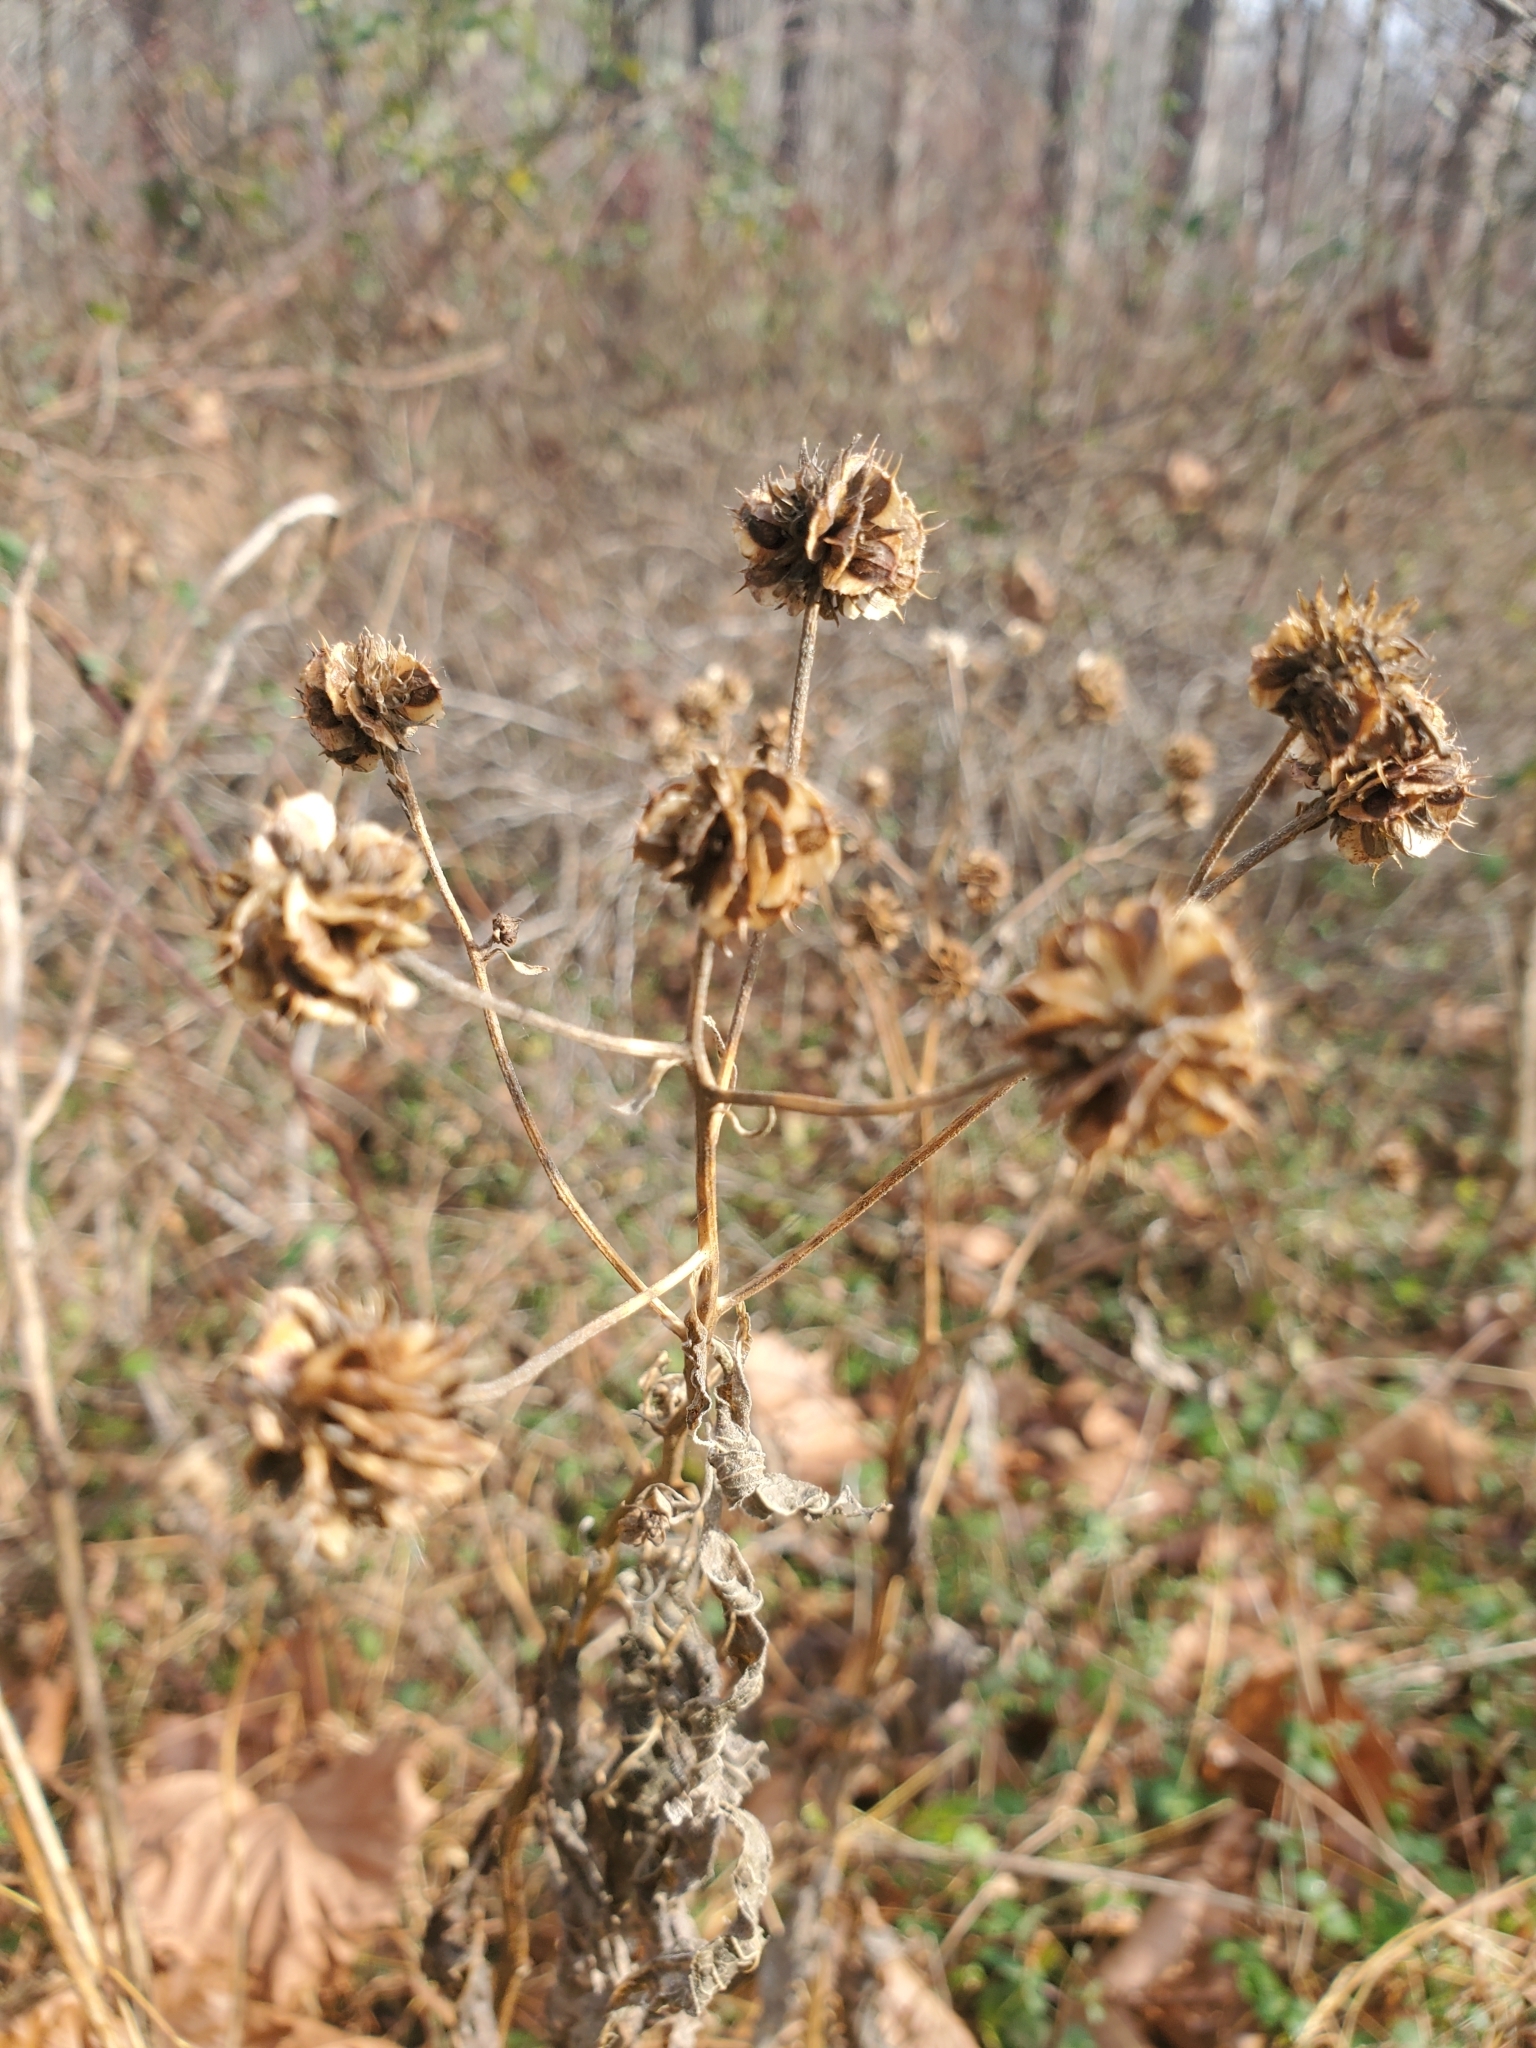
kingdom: Plantae
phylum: Tracheophyta
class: Magnoliopsida
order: Asterales
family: Asteraceae
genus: Verbesina
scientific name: Verbesina alternifolia
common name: Wingstem
